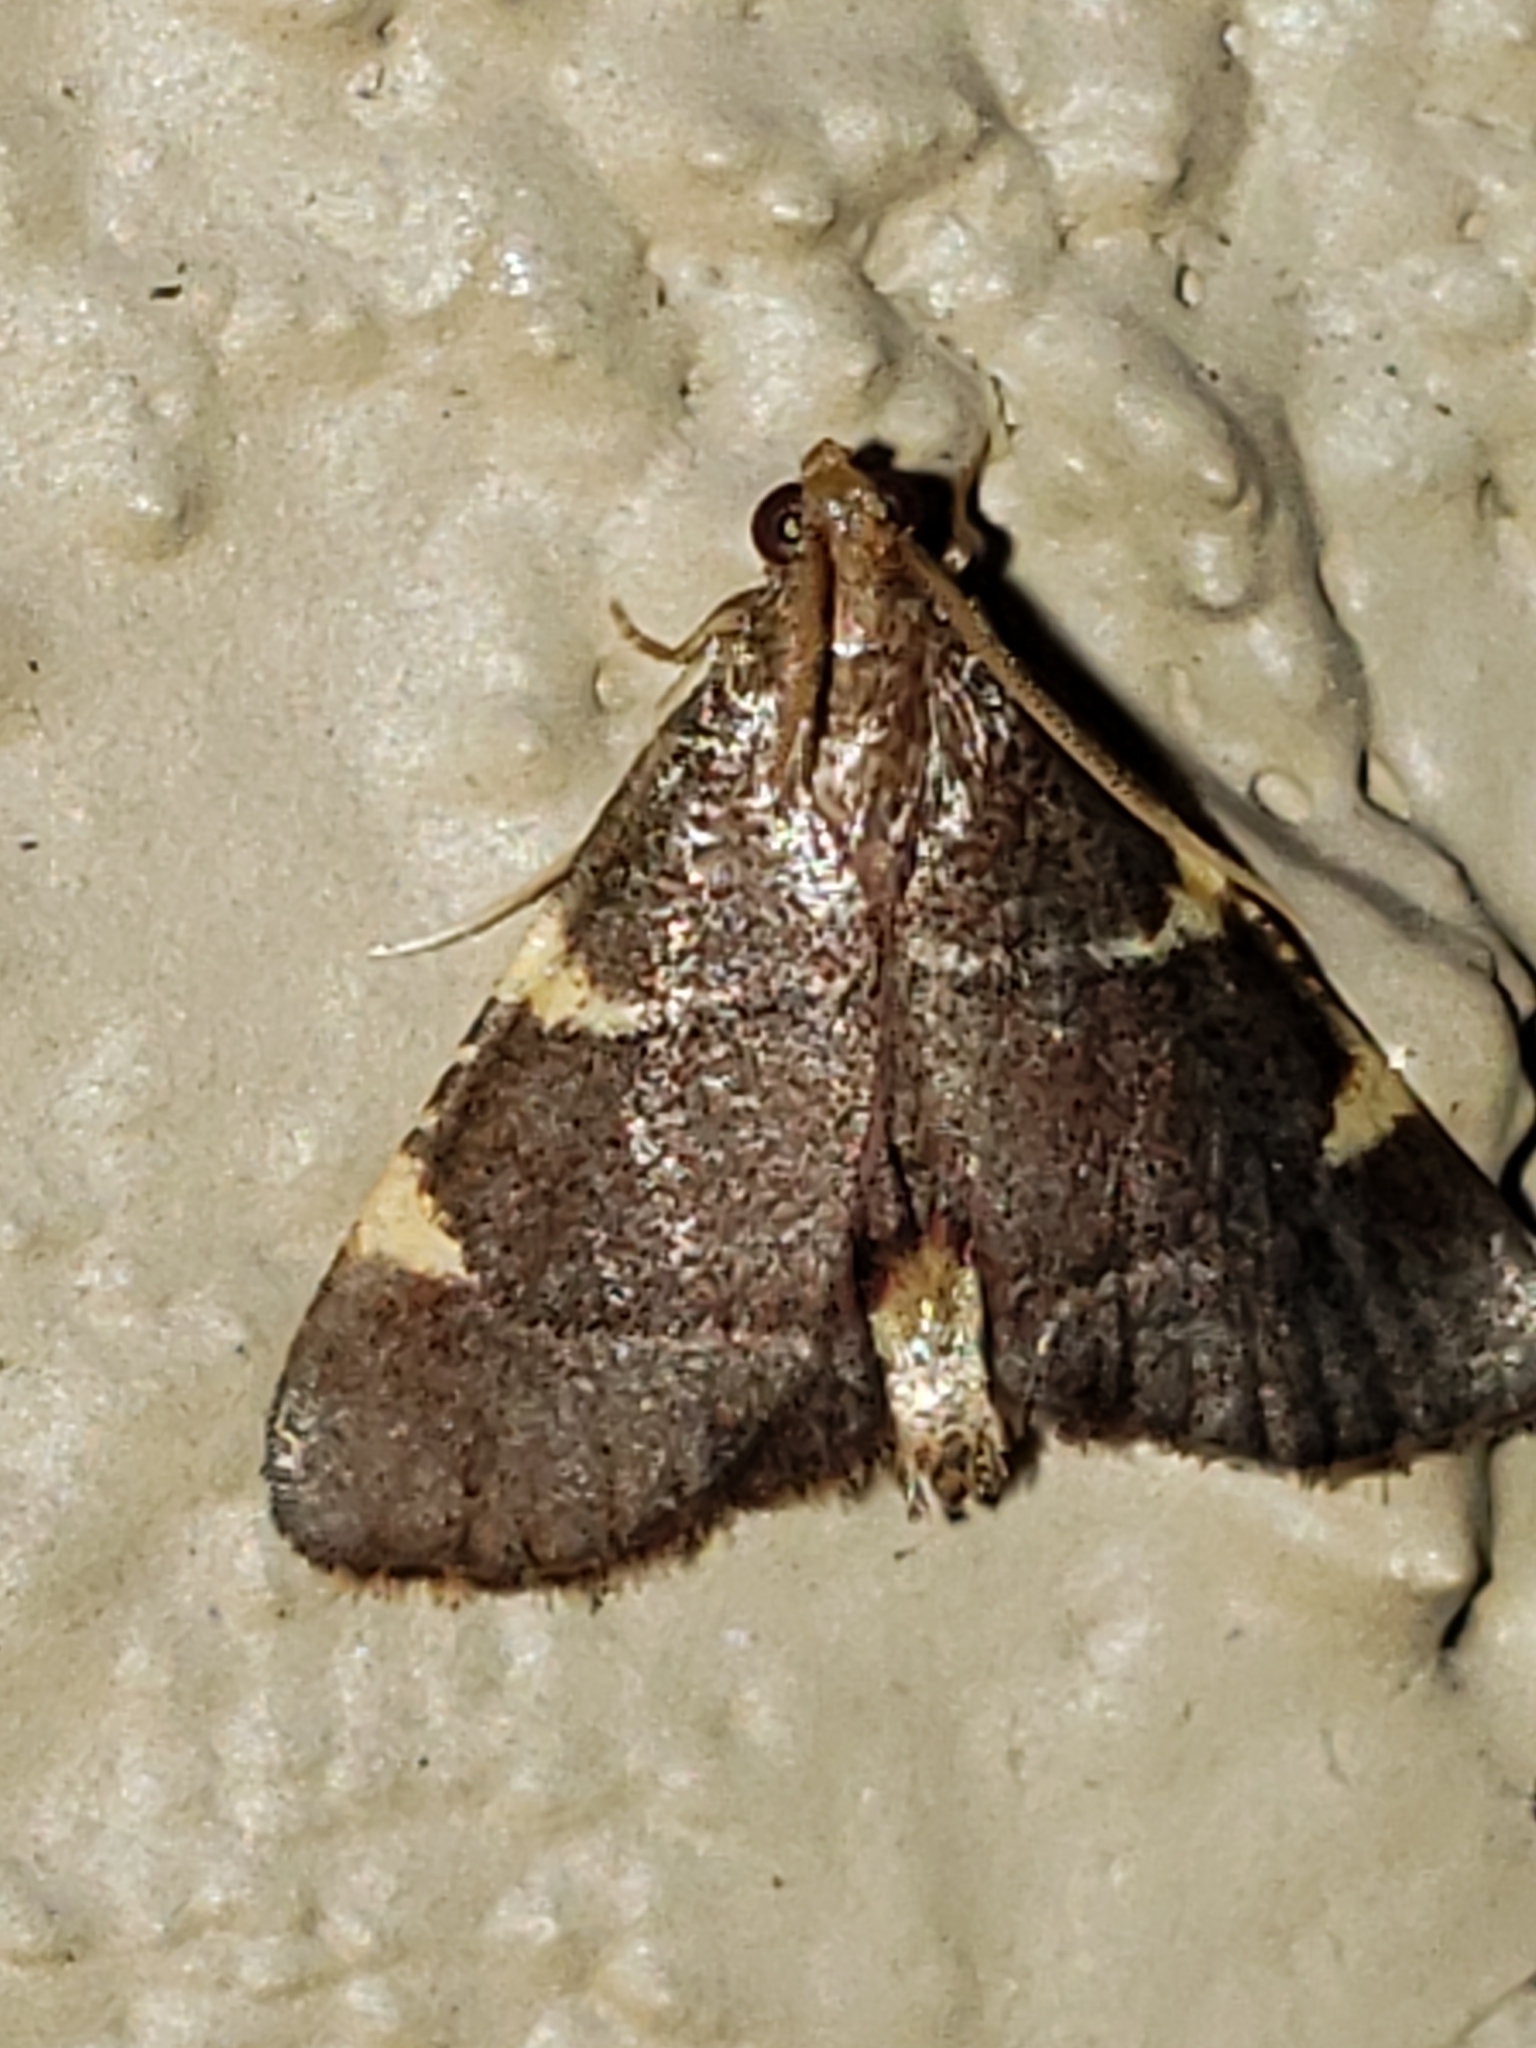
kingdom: Animalia
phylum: Arthropoda
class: Insecta
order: Lepidoptera
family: Pyralidae
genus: Hypsopygia
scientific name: Hypsopygia olinalis
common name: Yellow-fringed dolichomia moth
